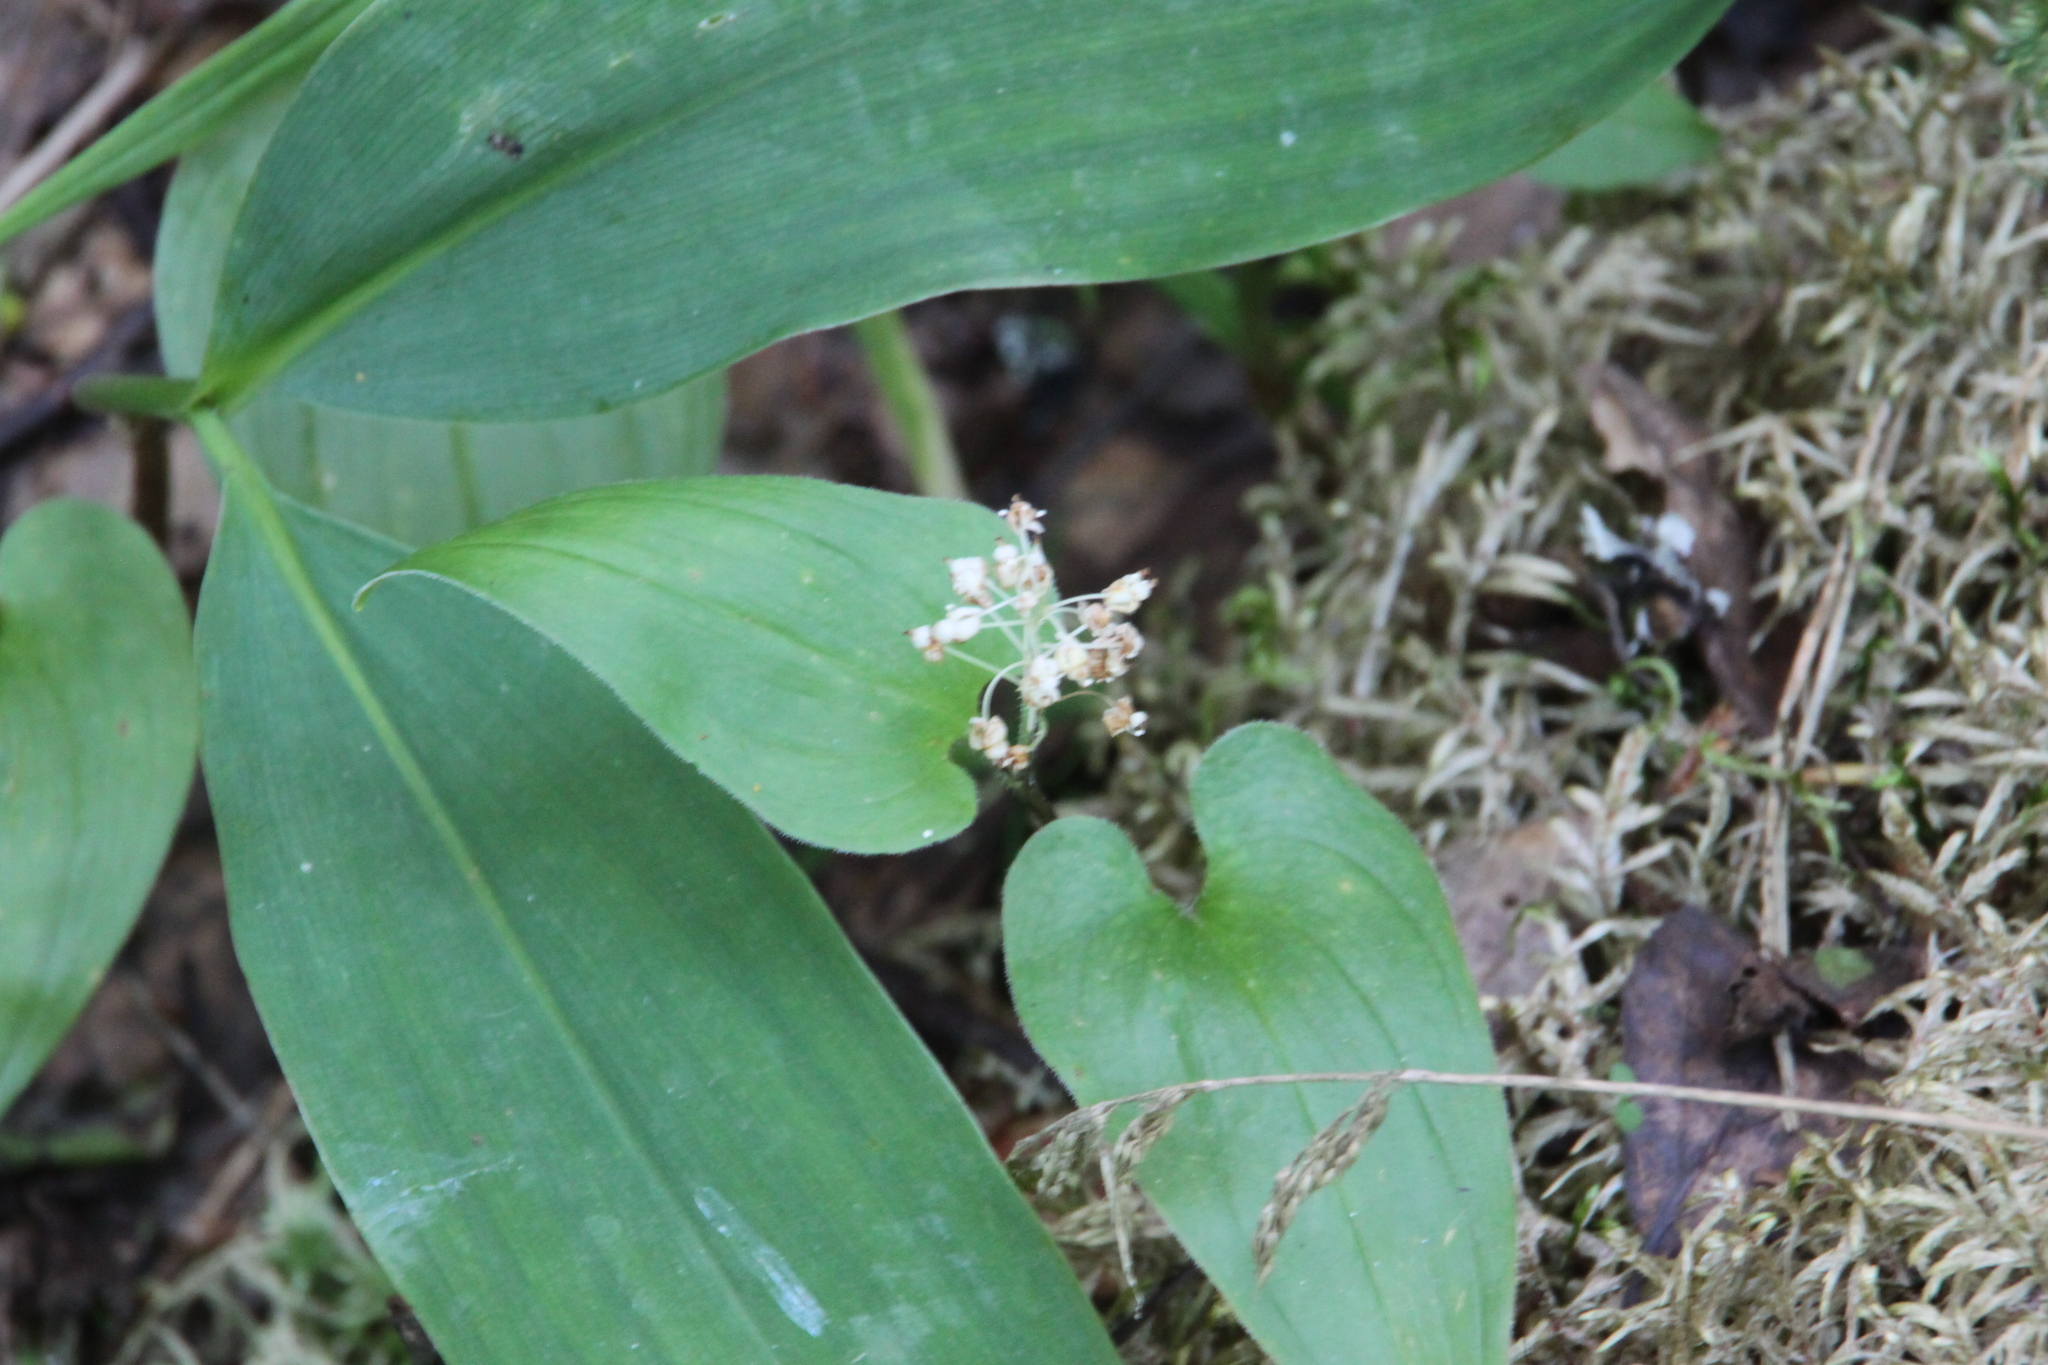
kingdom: Plantae
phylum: Tracheophyta
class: Liliopsida
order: Asparagales
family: Asparagaceae
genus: Maianthemum
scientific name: Maianthemum bifolium
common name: May lily
